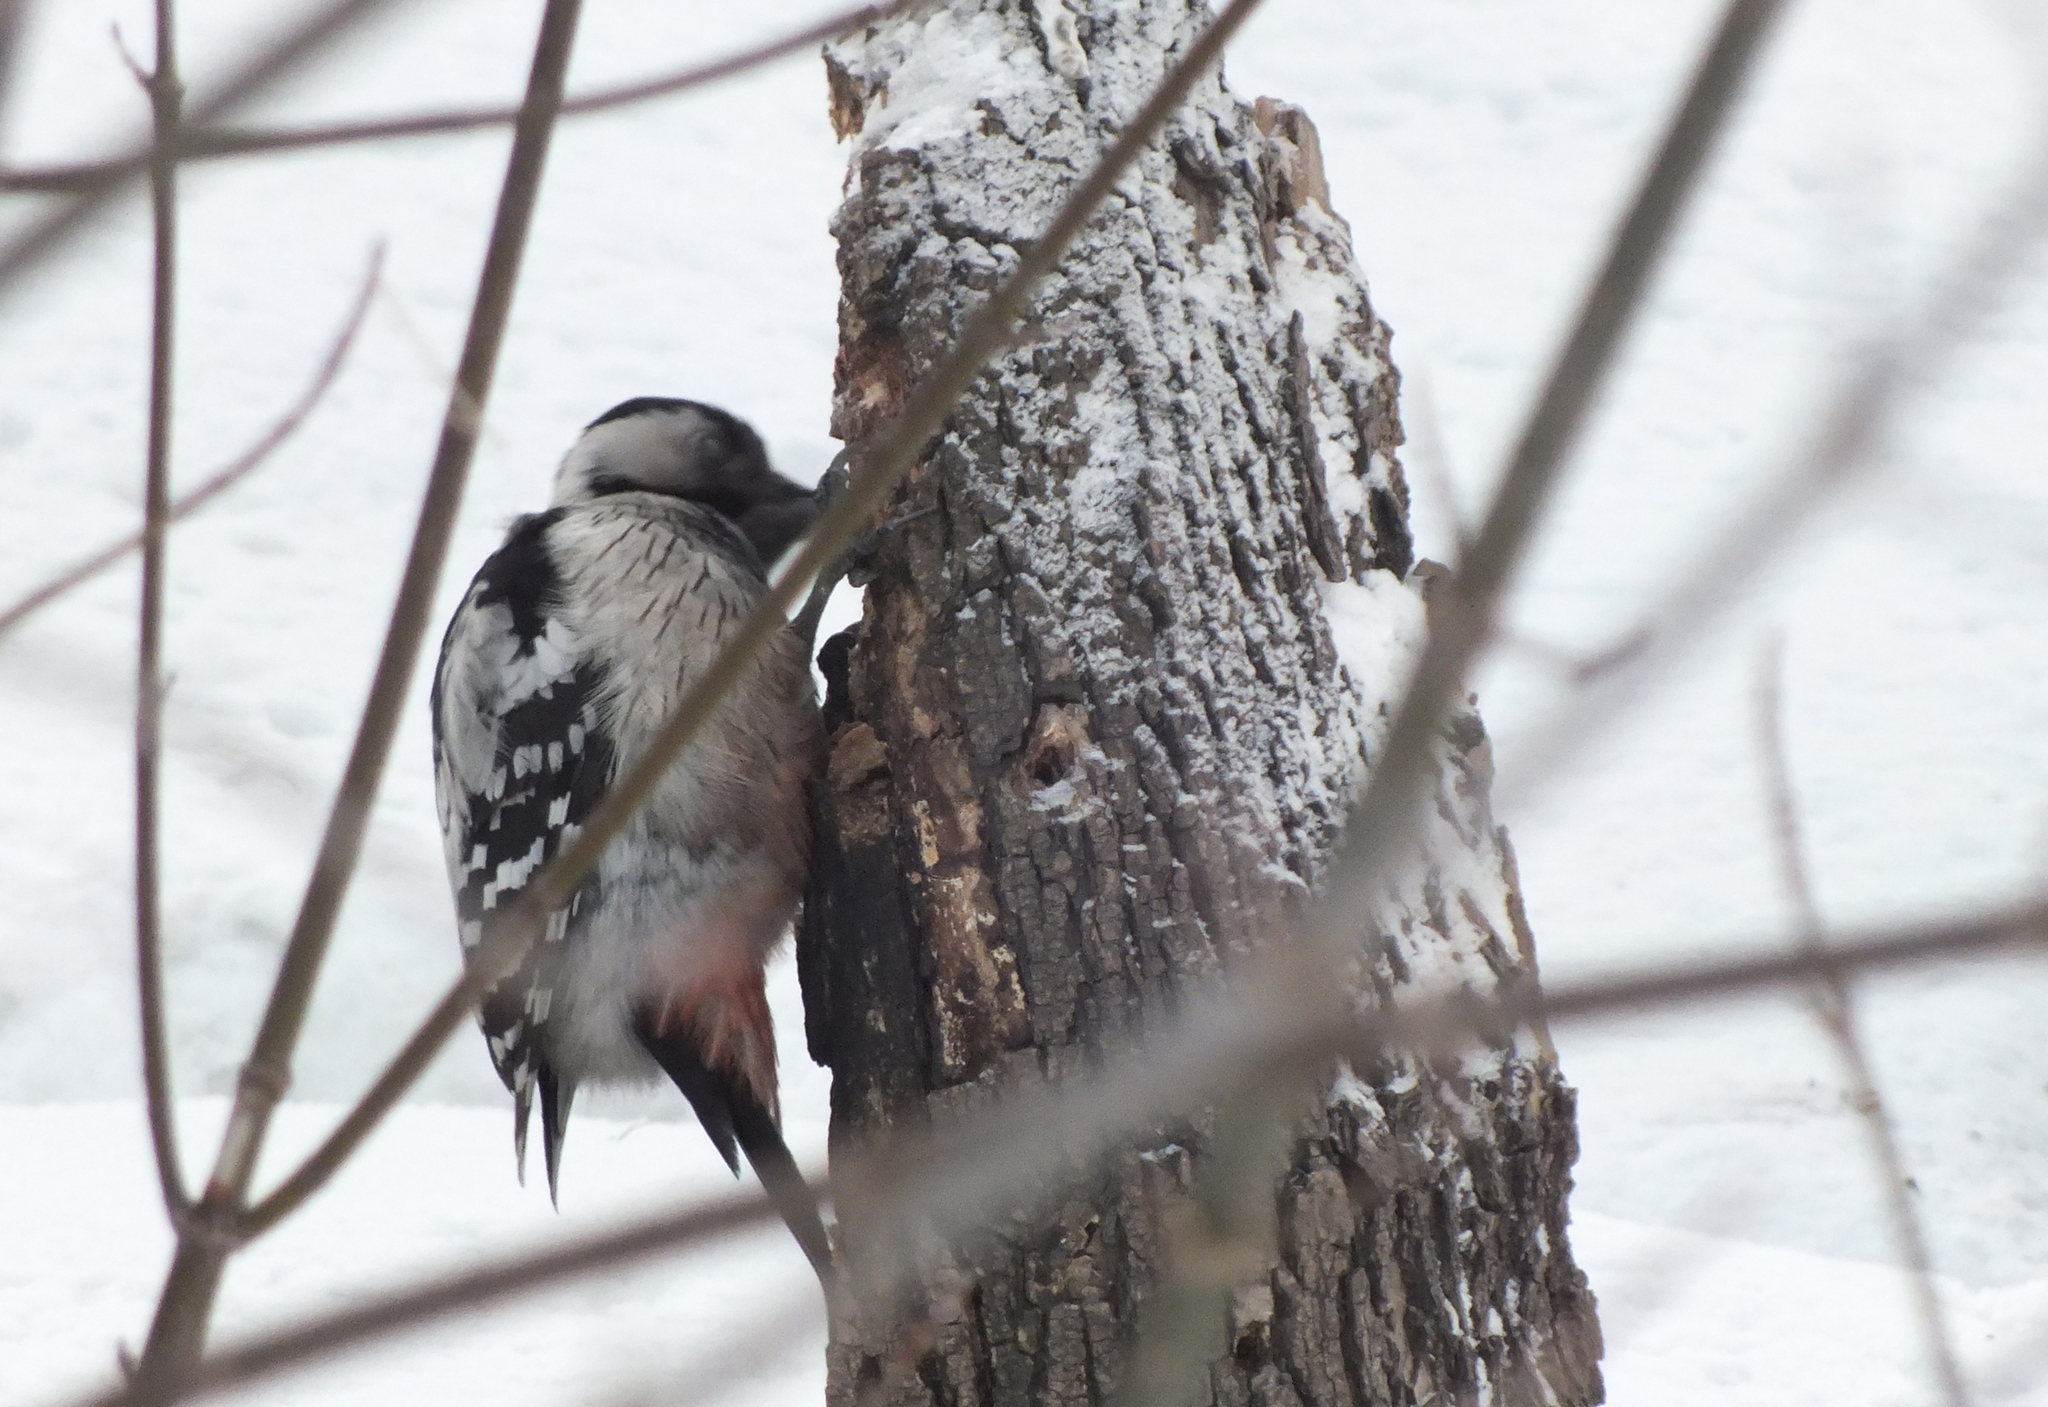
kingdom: Animalia
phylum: Chordata
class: Aves
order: Piciformes
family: Picidae
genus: Dendrocopos
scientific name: Dendrocopos leucotos
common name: White-backed woodpecker
